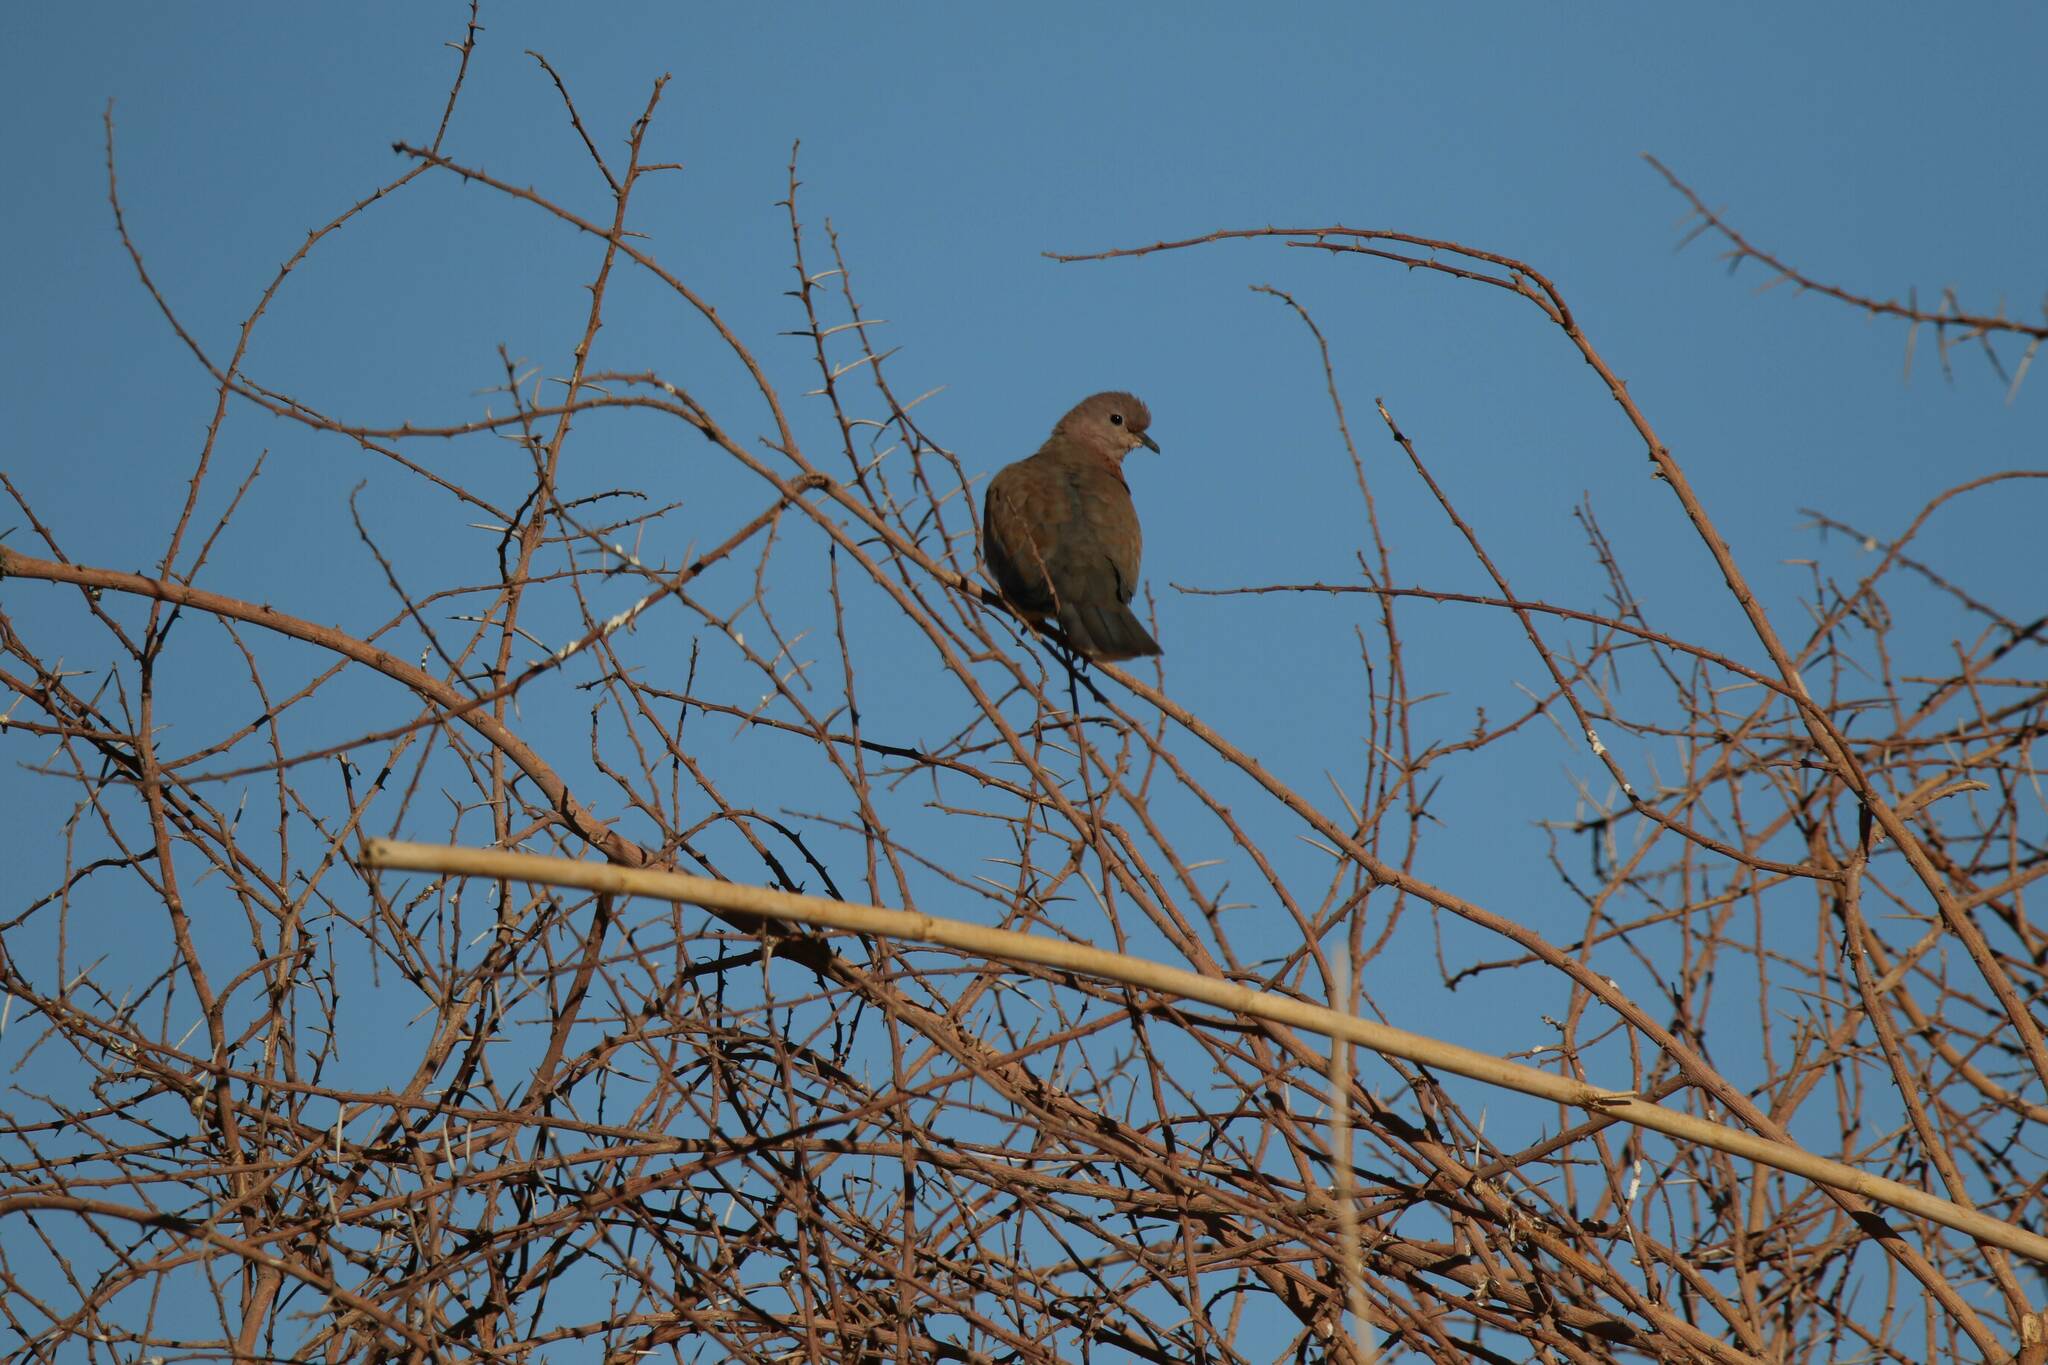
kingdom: Animalia
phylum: Chordata
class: Aves
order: Columbiformes
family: Columbidae
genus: Spilopelia
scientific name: Spilopelia senegalensis
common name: Laughing dove
